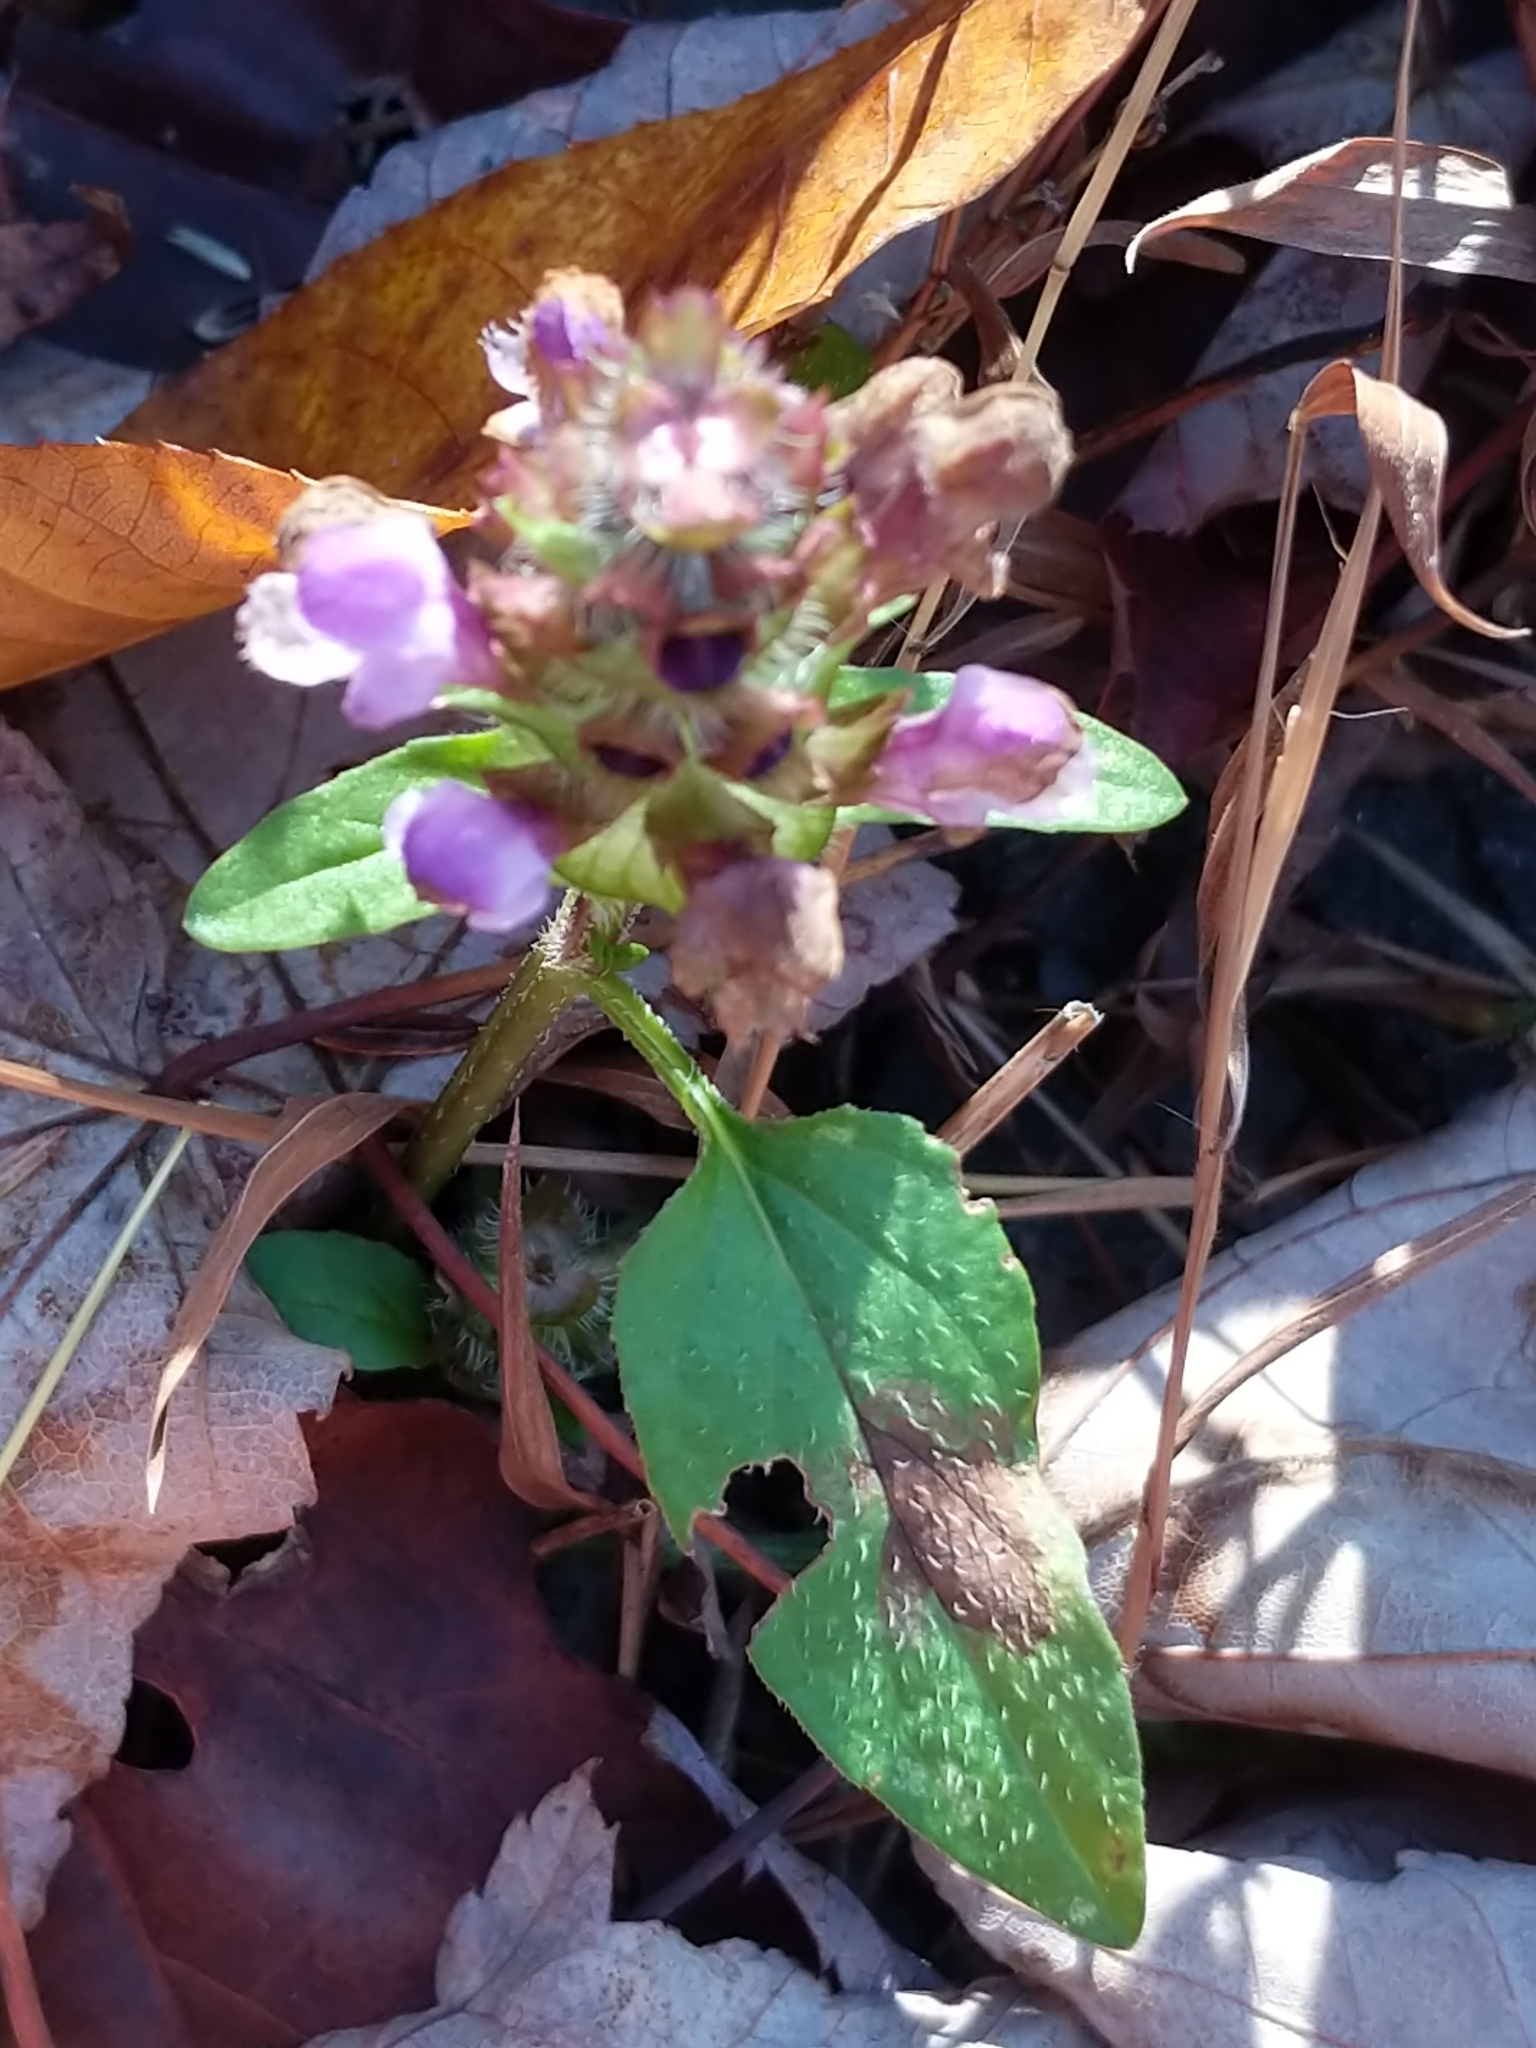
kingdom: Plantae
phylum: Tracheophyta
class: Magnoliopsida
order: Lamiales
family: Lamiaceae
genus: Prunella
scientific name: Prunella vulgaris
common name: Heal-all
